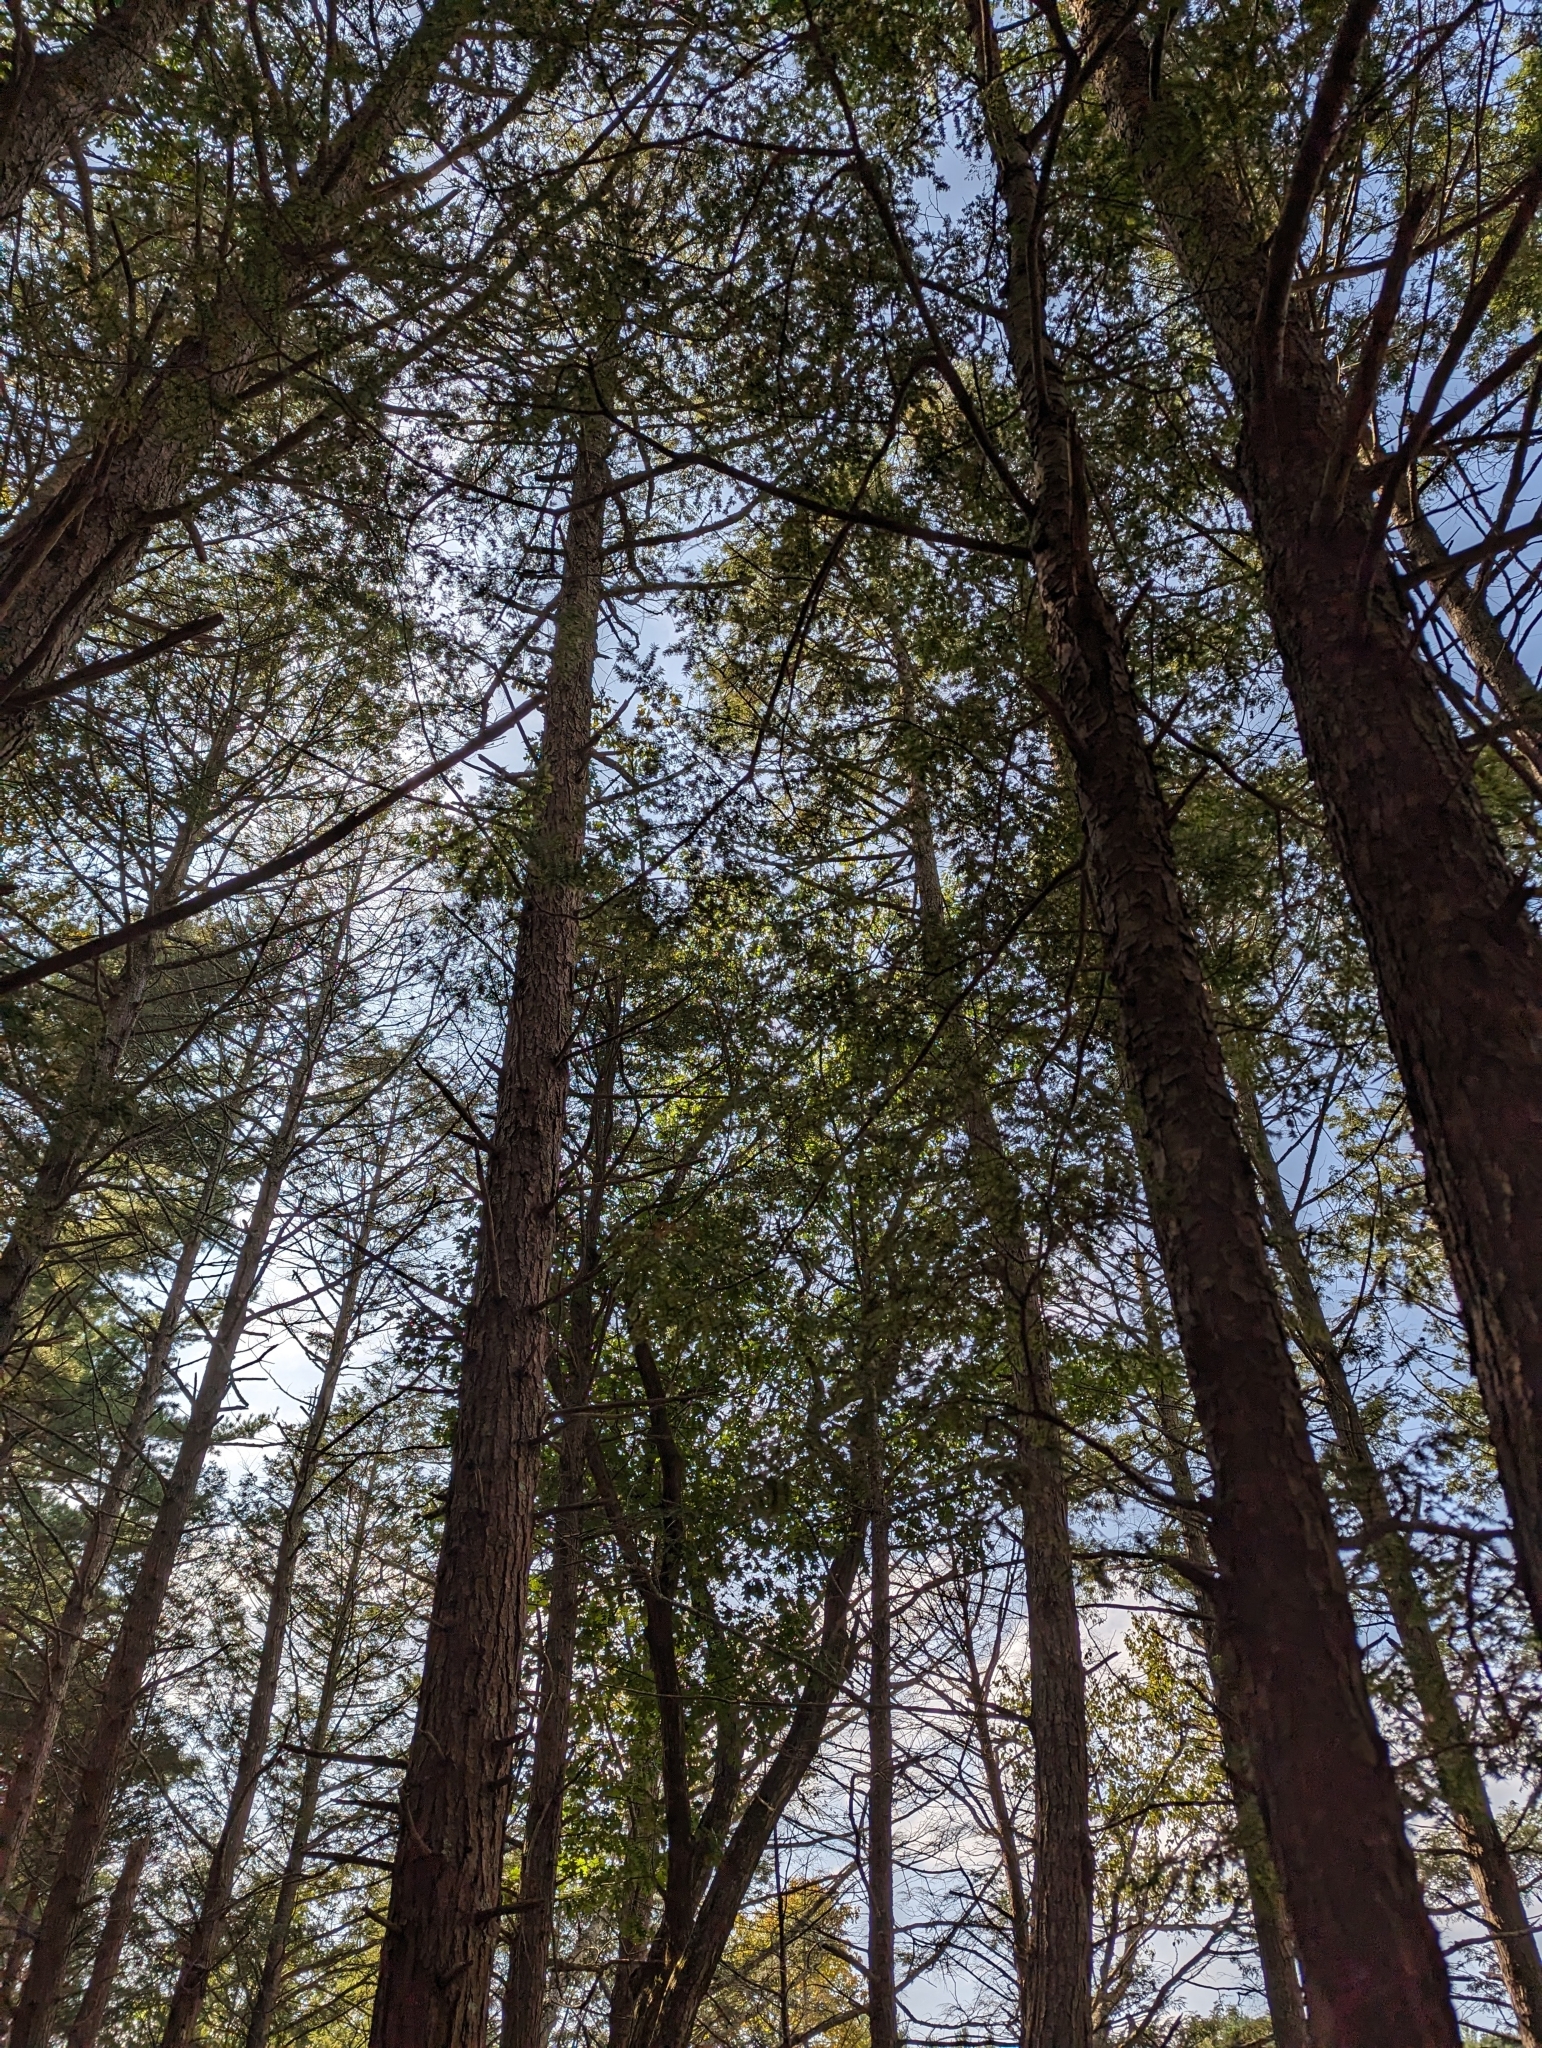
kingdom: Plantae
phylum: Tracheophyta
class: Pinopsida
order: Pinales
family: Pinaceae
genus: Tsuga
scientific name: Tsuga canadensis
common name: Eastern hemlock
